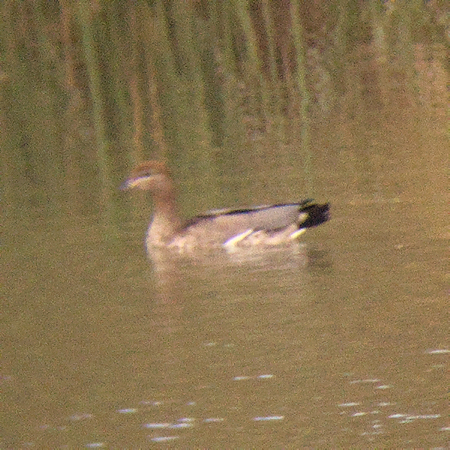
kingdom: Animalia
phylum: Chordata
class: Aves
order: Anseriformes
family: Anatidae
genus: Chenonetta
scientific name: Chenonetta jubata
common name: Maned duck
